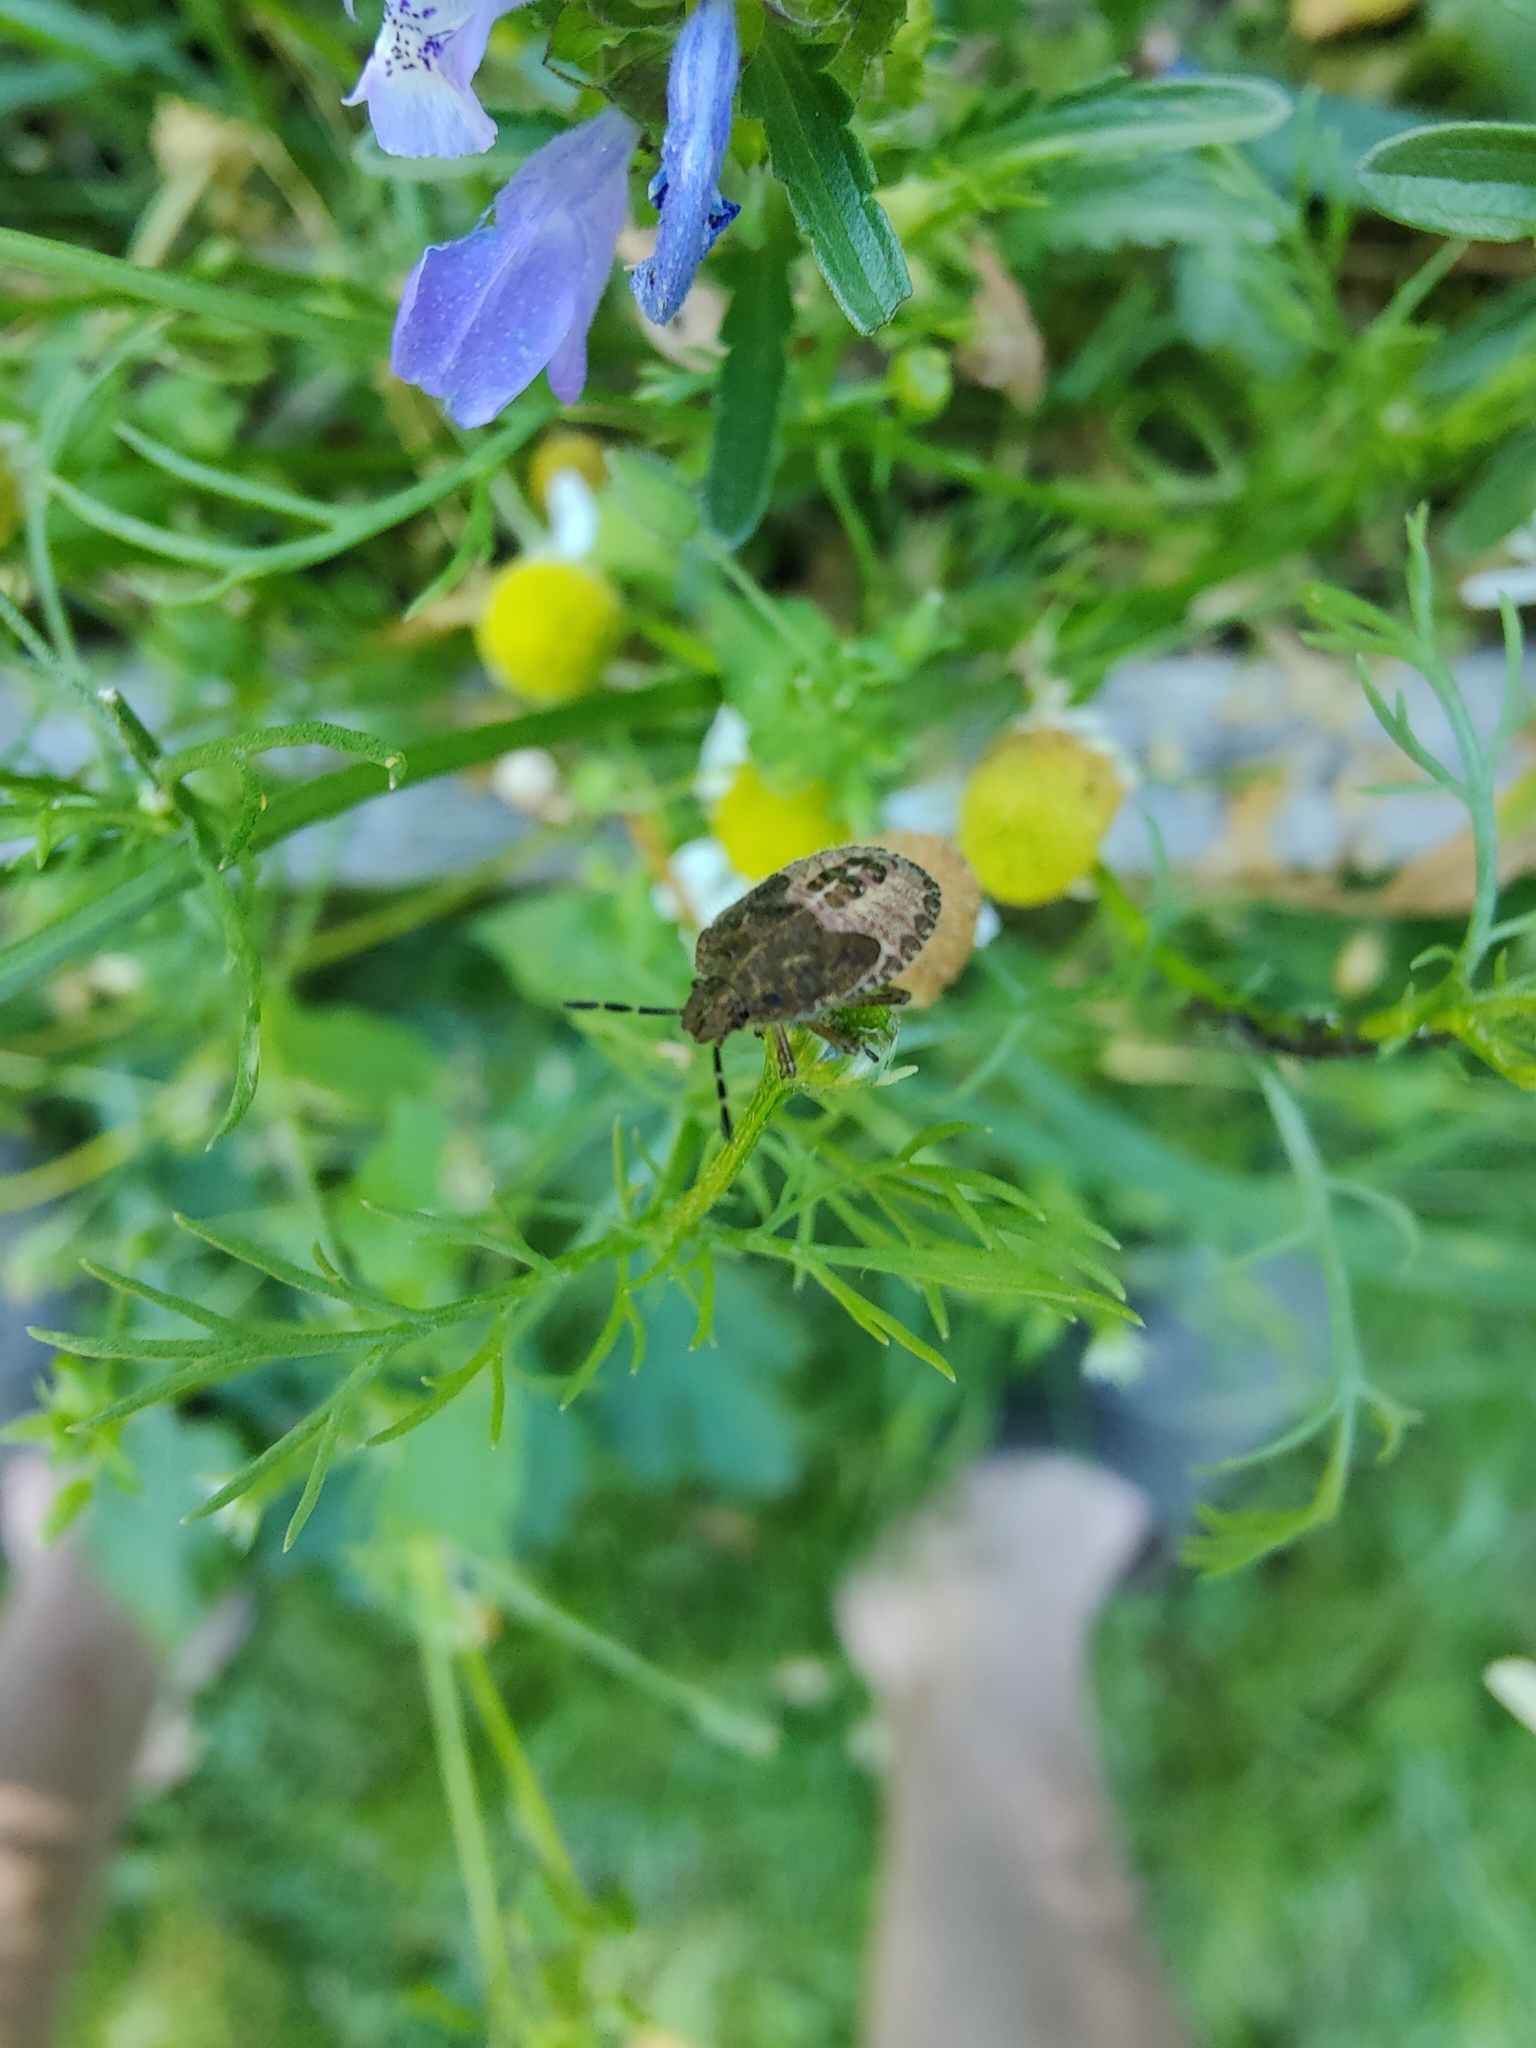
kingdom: Animalia
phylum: Arthropoda
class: Insecta
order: Hemiptera
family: Pentatomidae
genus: Dolycoris
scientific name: Dolycoris baccarum
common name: Sloe bug
